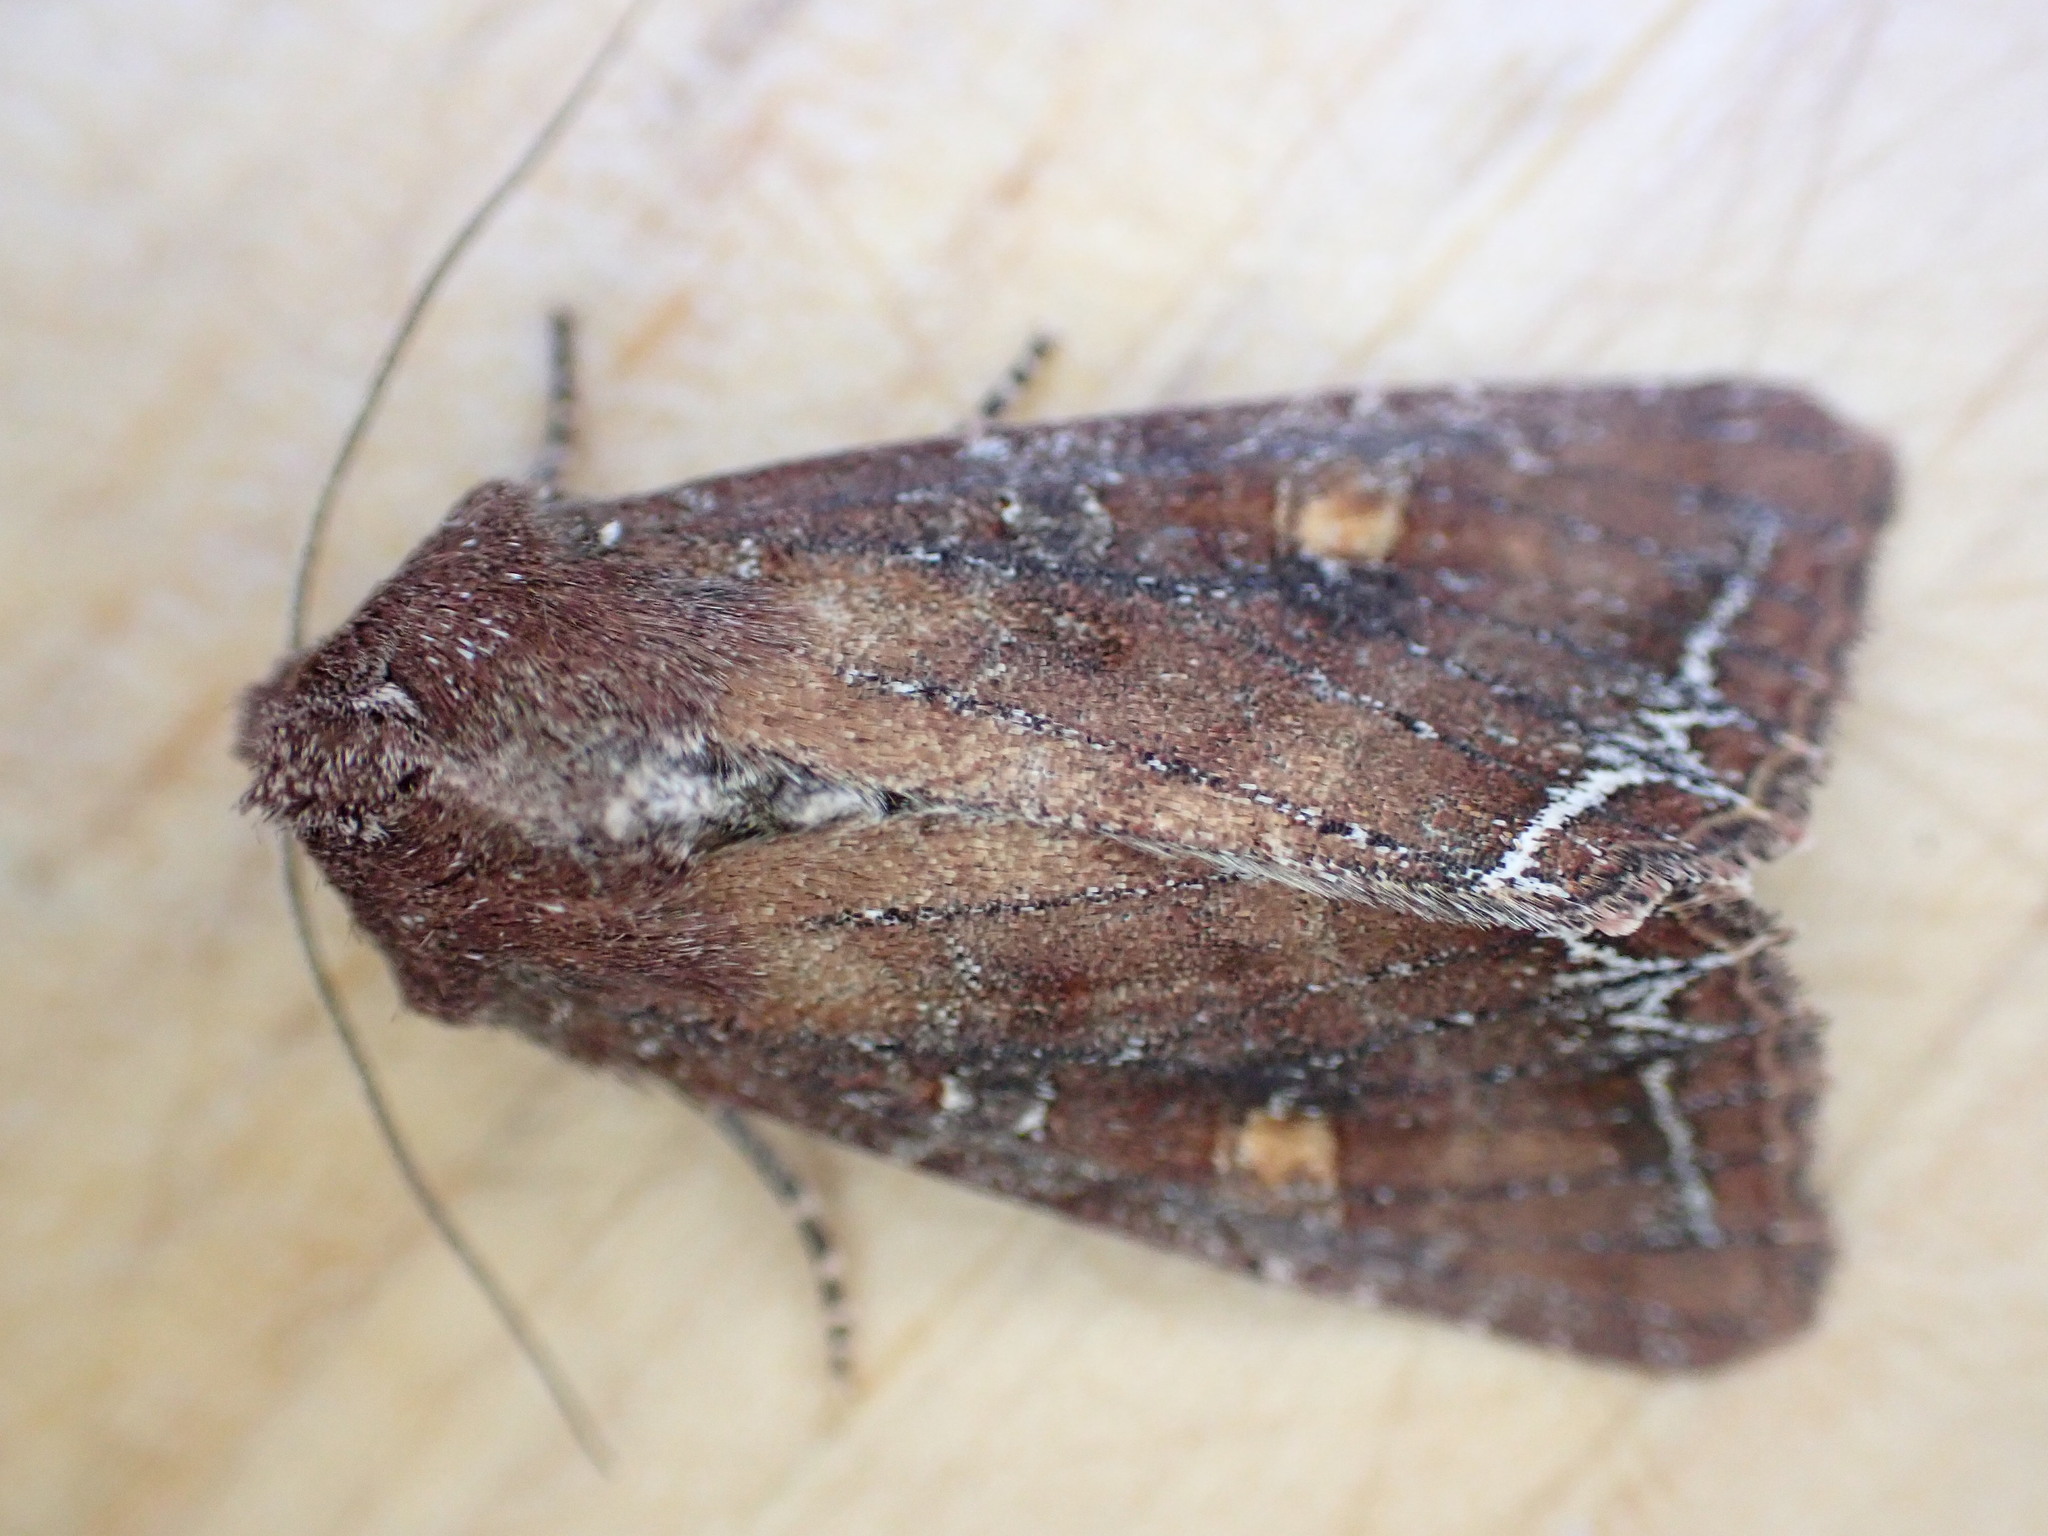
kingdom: Animalia
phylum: Arthropoda
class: Insecta
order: Lepidoptera
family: Noctuidae
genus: Lacanobia
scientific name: Lacanobia oleracea
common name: Bright-line brown-eye
